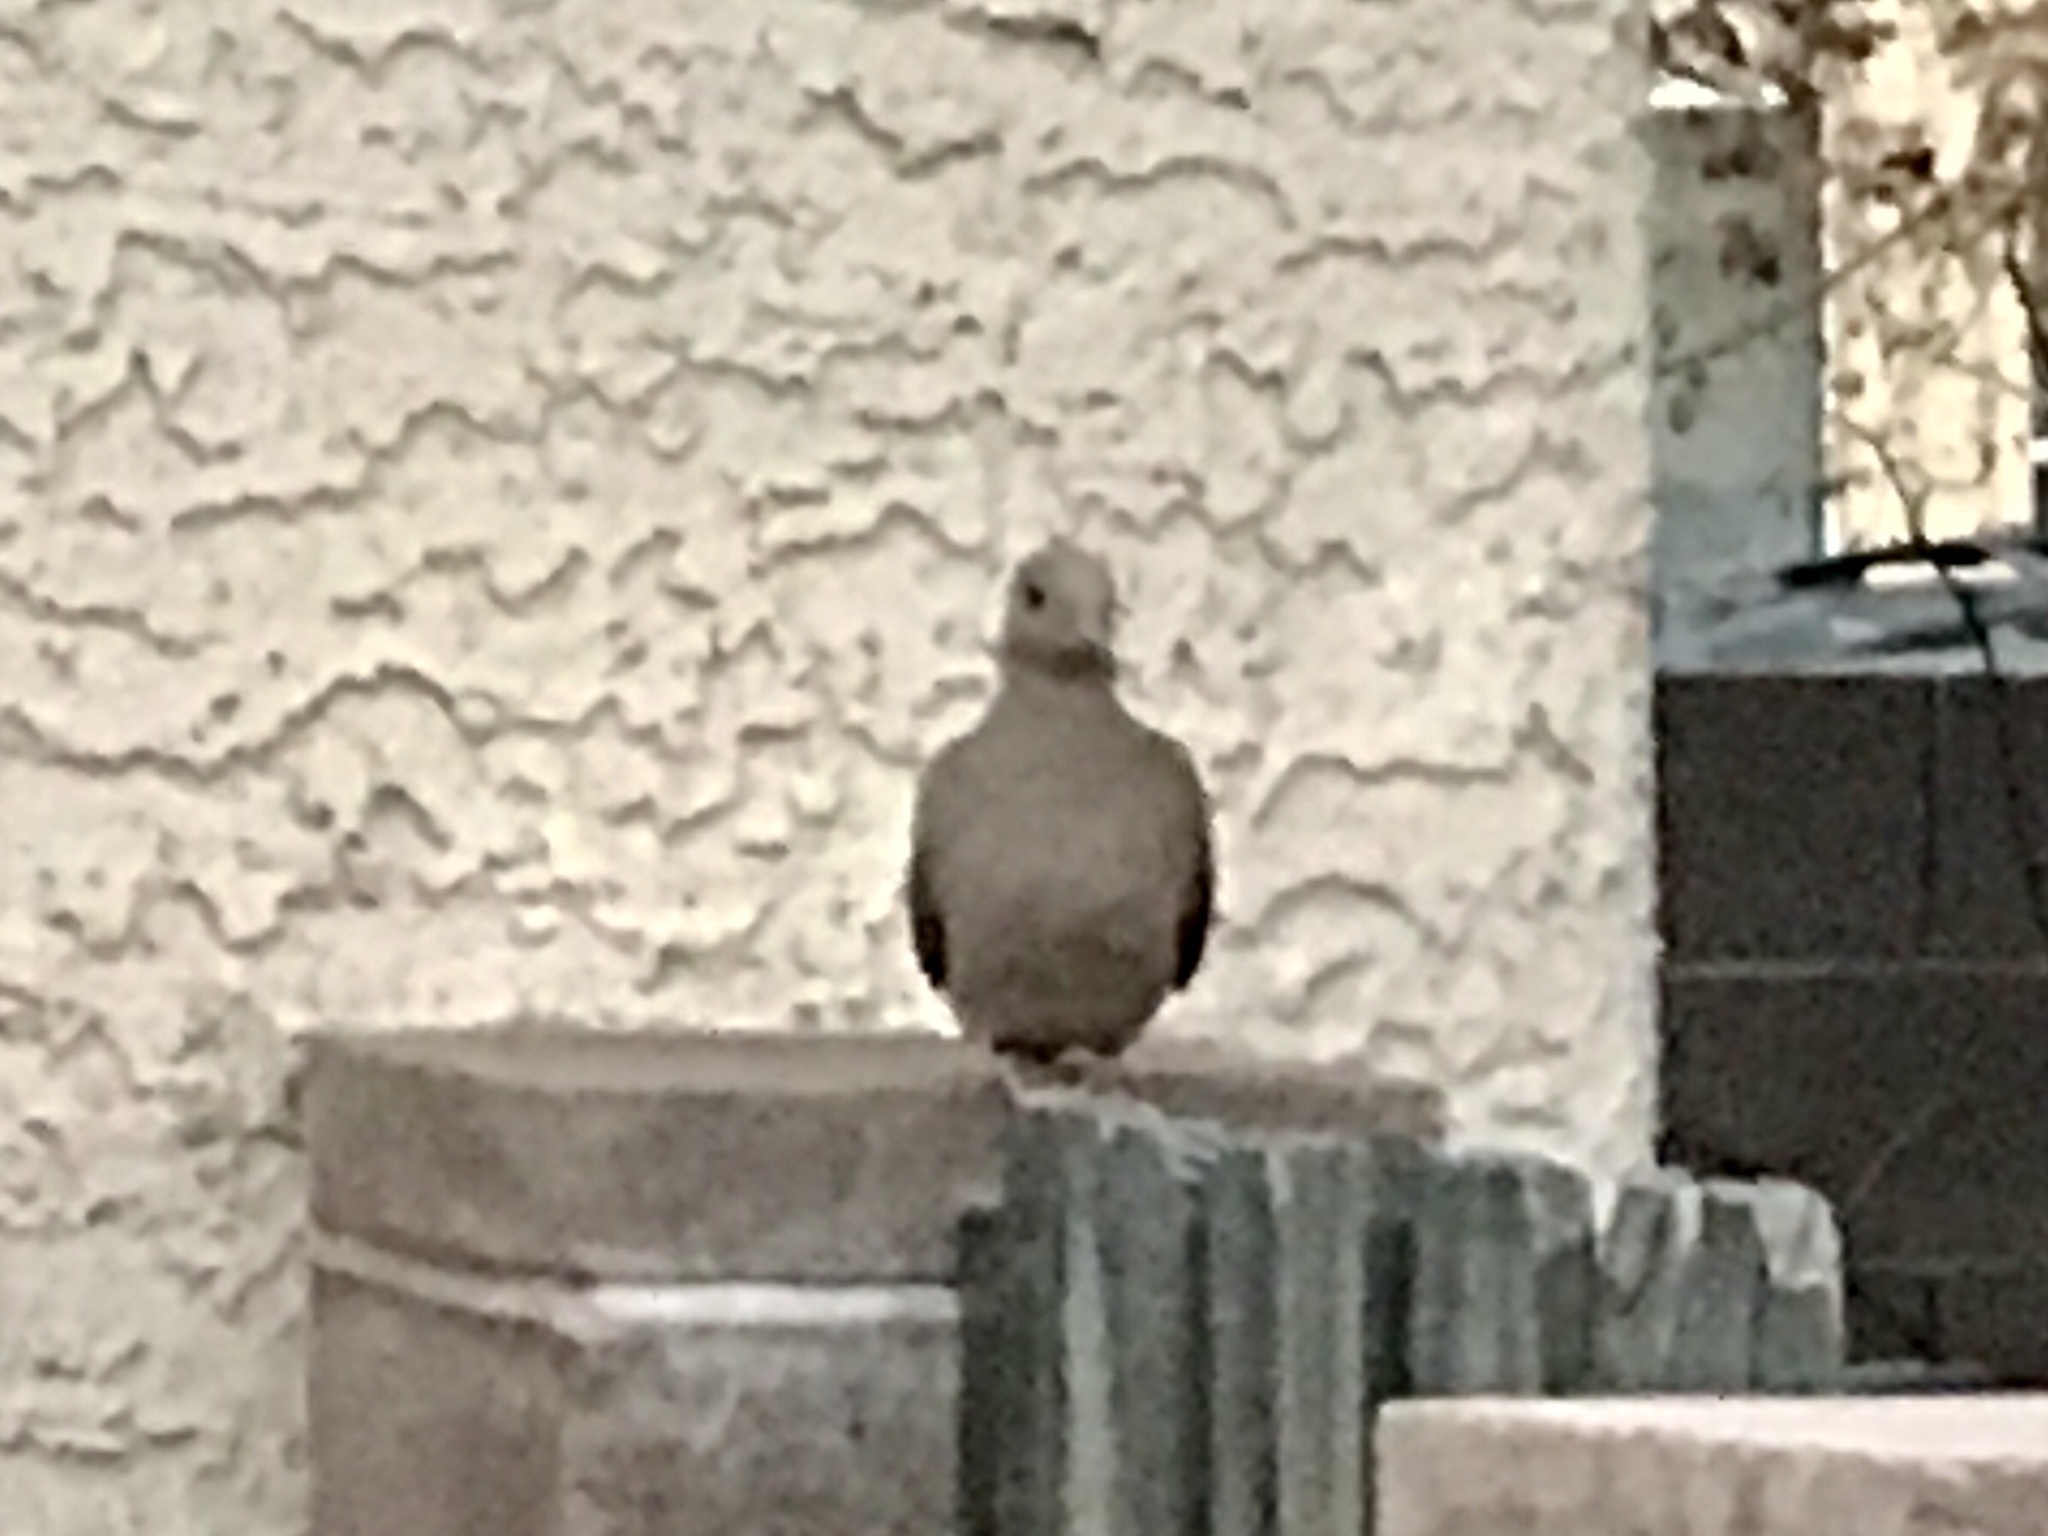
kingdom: Animalia
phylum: Chordata
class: Aves
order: Columbiformes
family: Columbidae
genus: Zenaida
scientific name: Zenaida macroura
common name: Mourning dove
